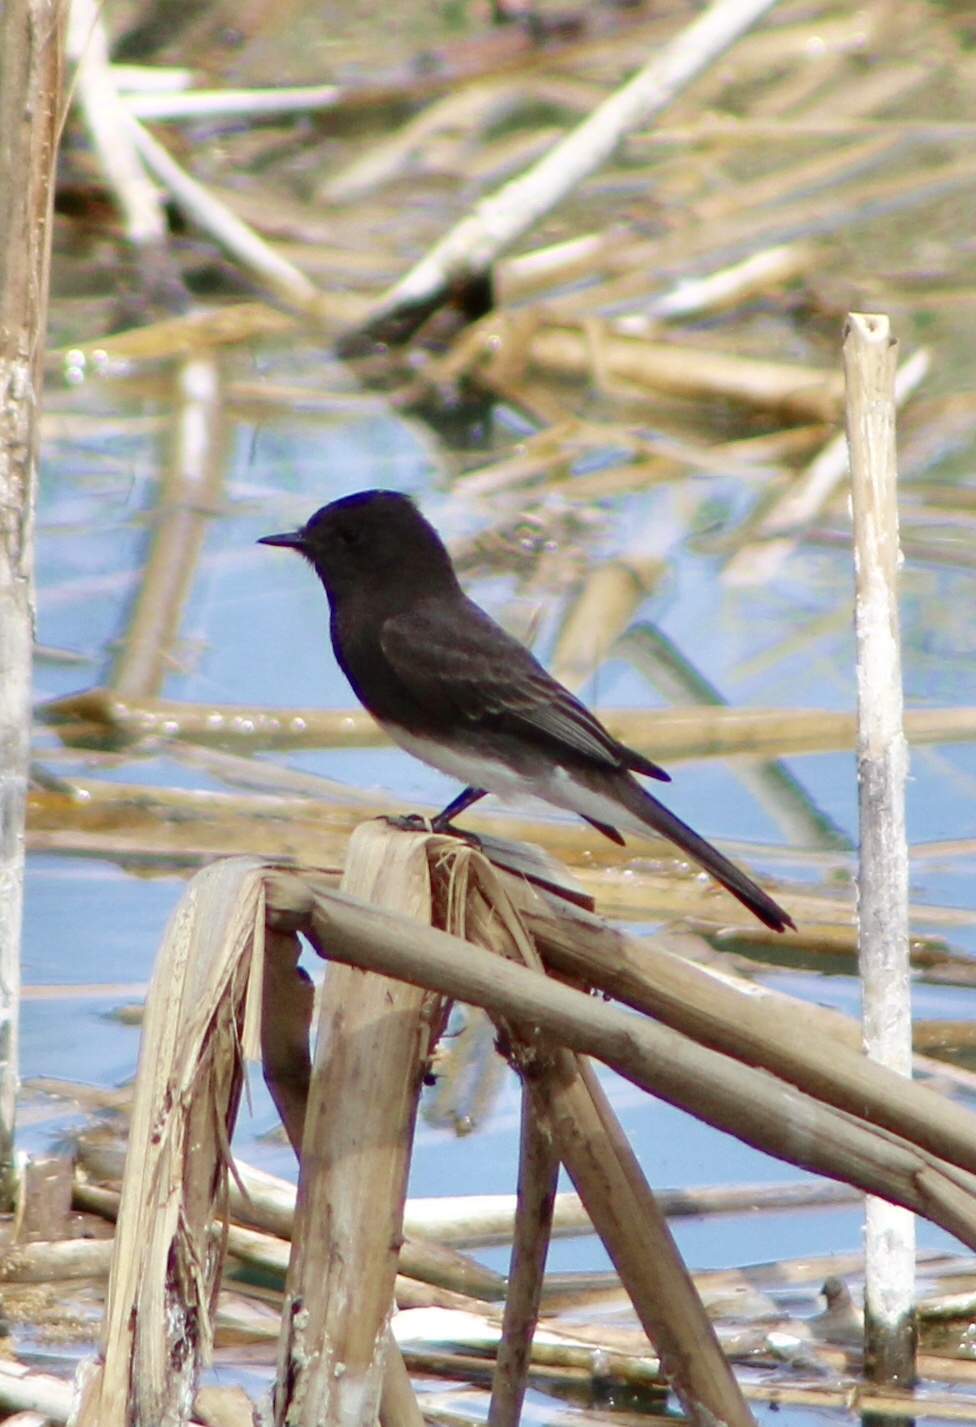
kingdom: Animalia
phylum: Chordata
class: Aves
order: Passeriformes
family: Tyrannidae
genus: Sayornis
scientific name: Sayornis nigricans
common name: Black phoebe
